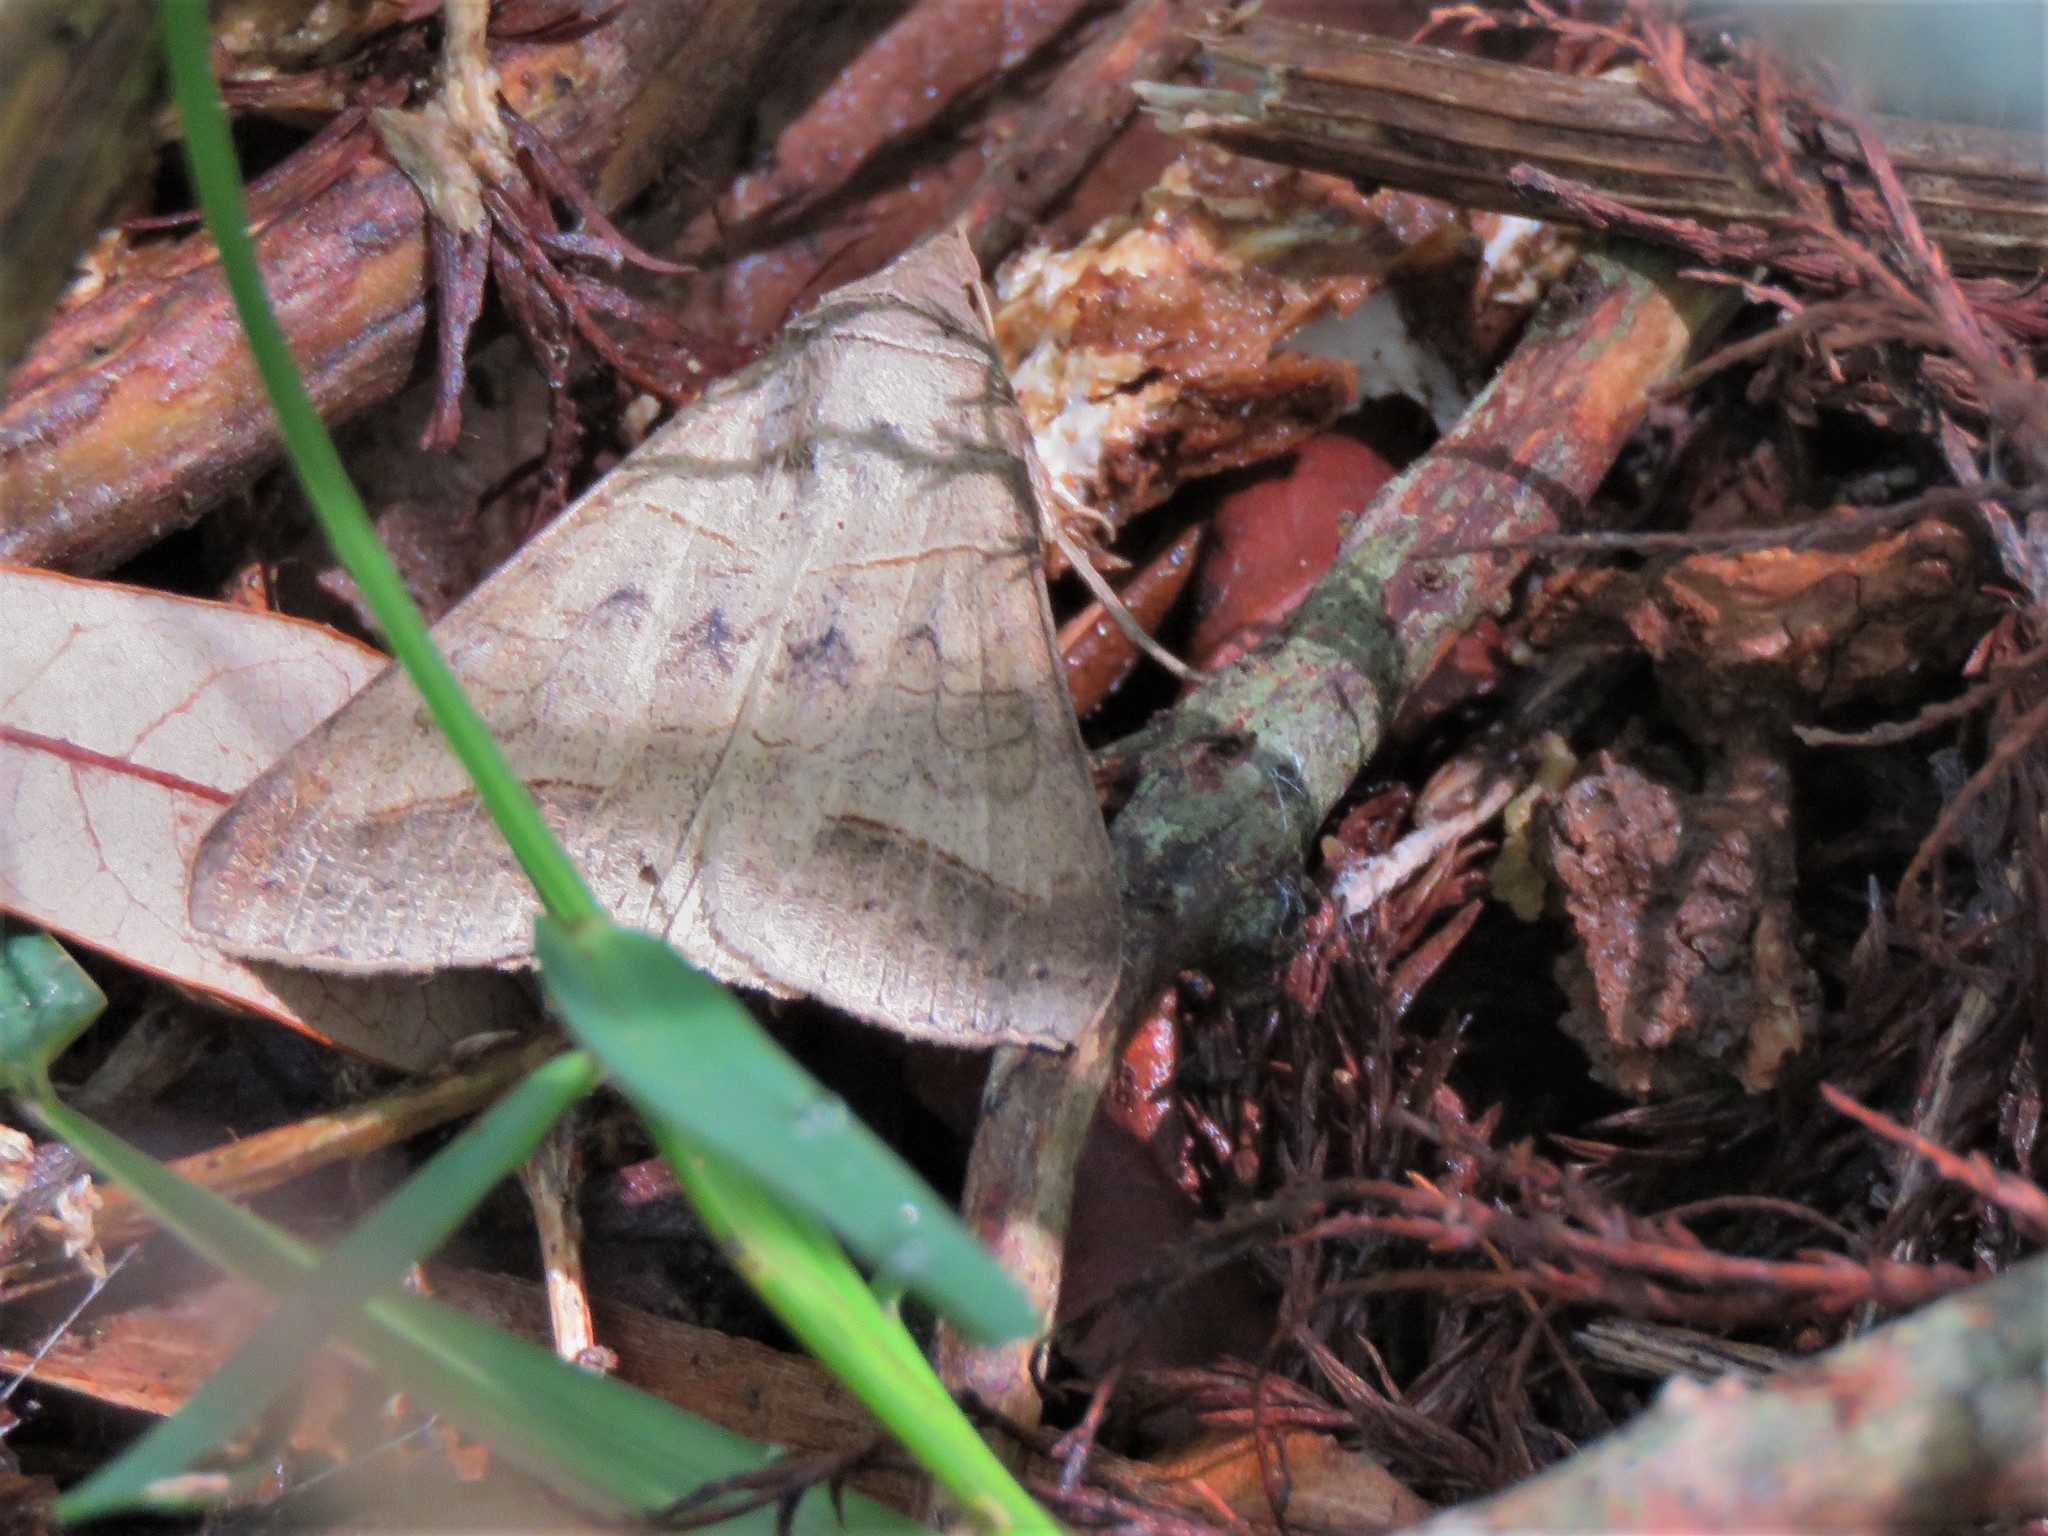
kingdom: Animalia
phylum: Arthropoda
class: Insecta
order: Lepidoptera
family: Erebidae
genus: Mocis
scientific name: Mocis marcida
